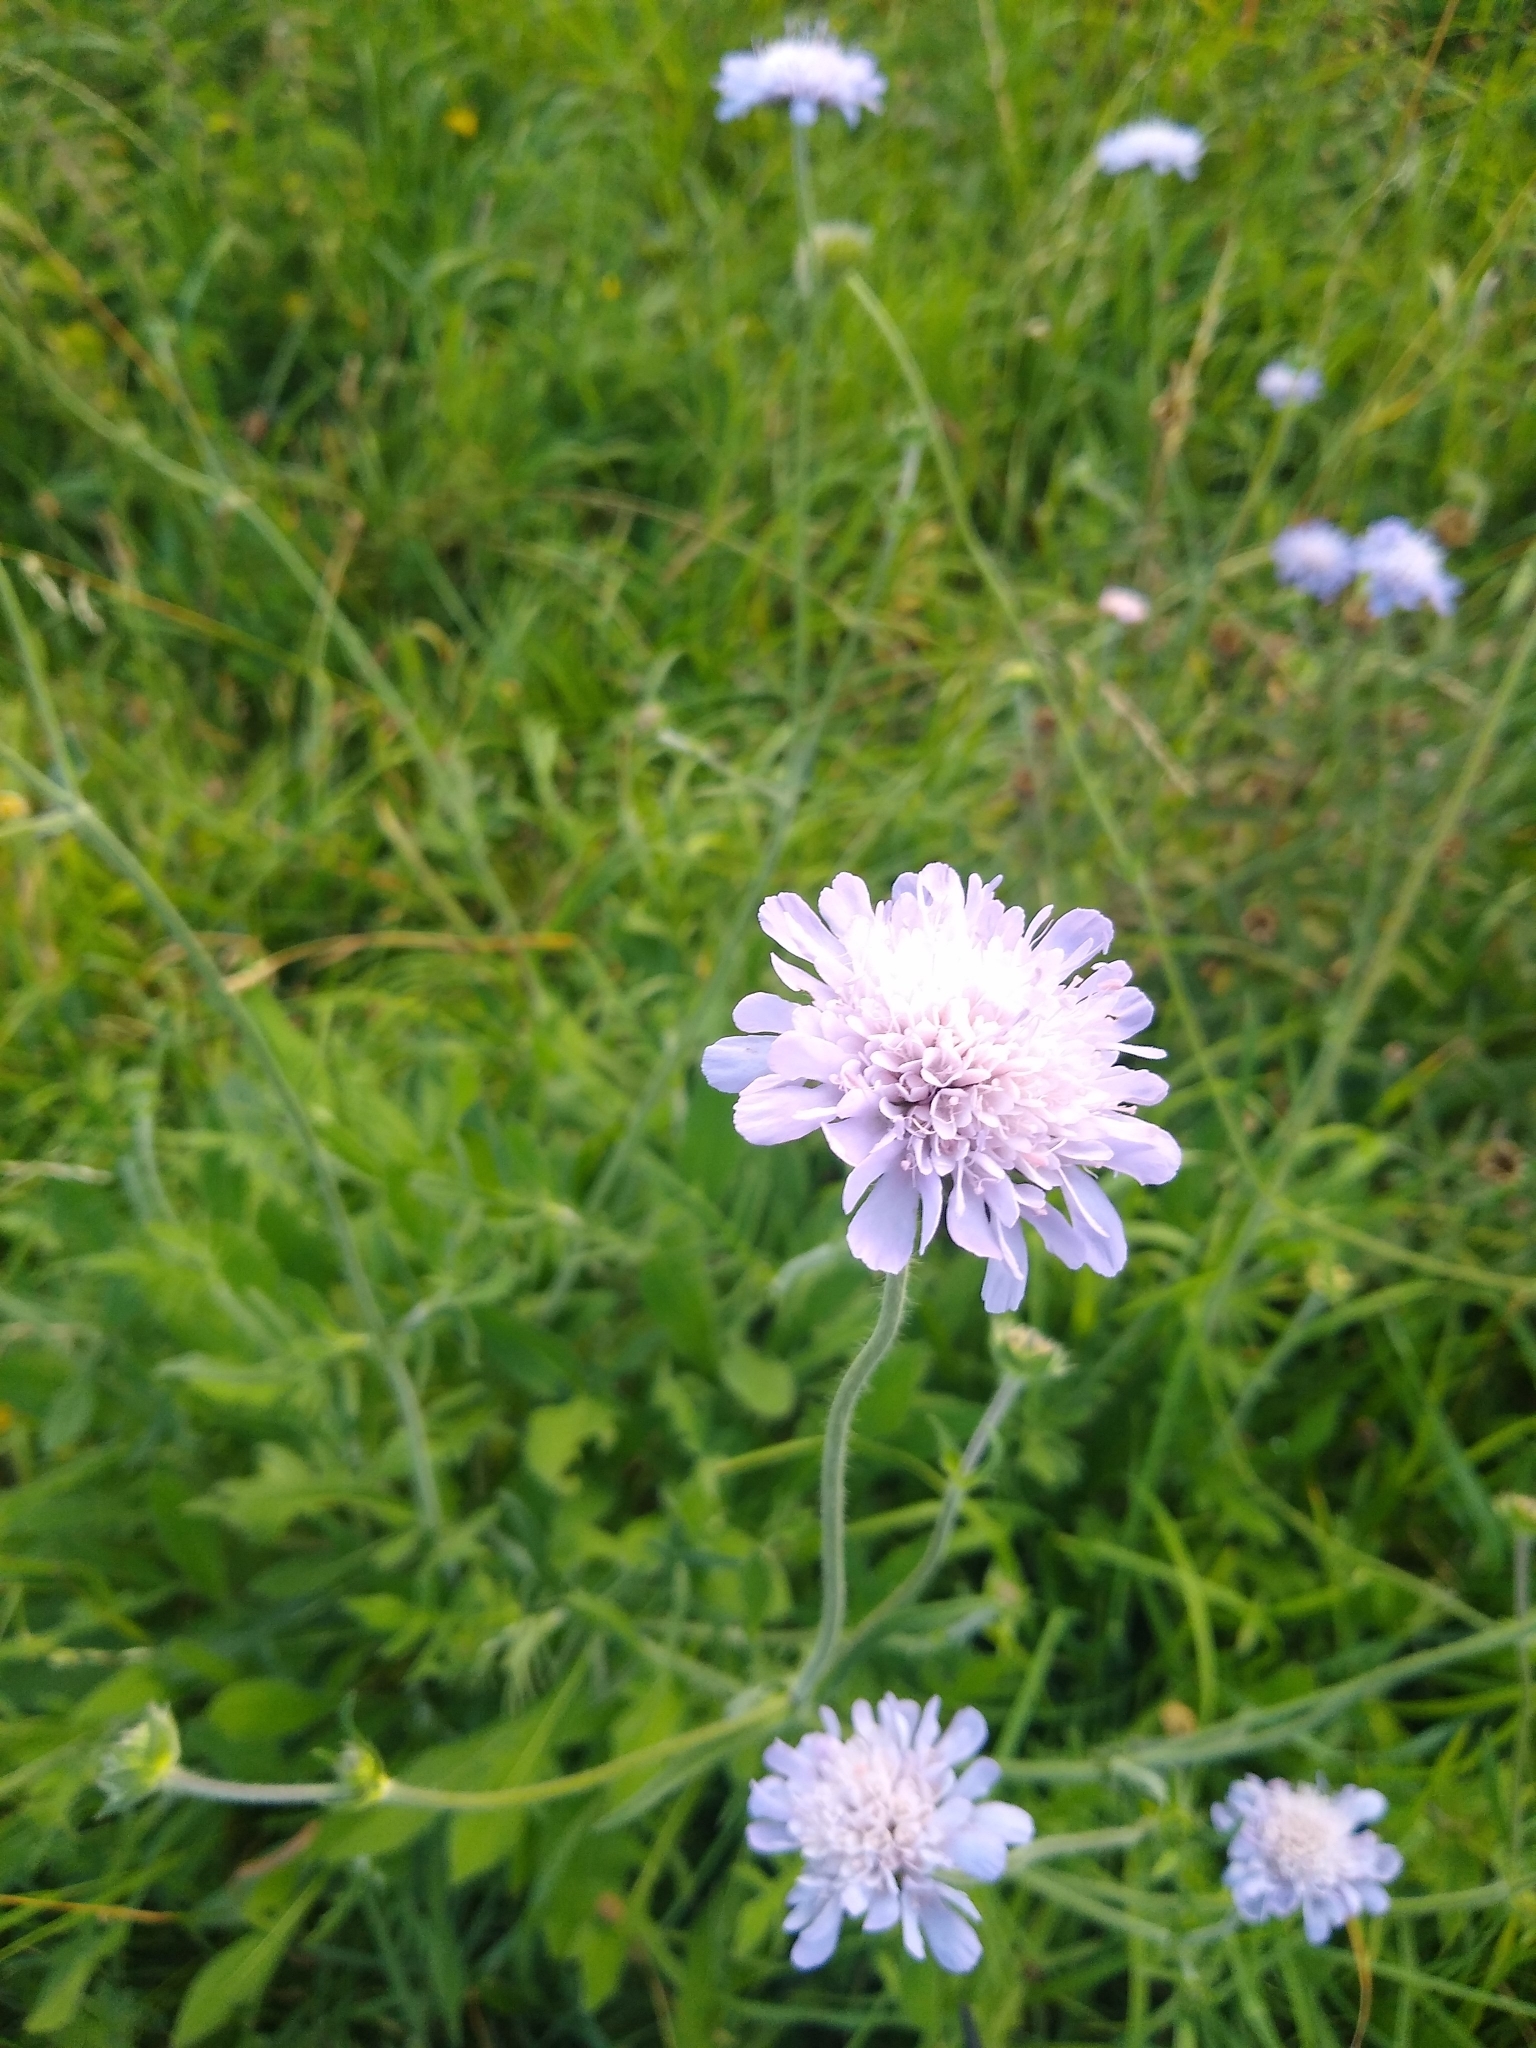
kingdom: Plantae
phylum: Tracheophyta
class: Magnoliopsida
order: Dipsacales
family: Caprifoliaceae
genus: Knautia
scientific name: Knautia arvensis
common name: Field scabiosa
